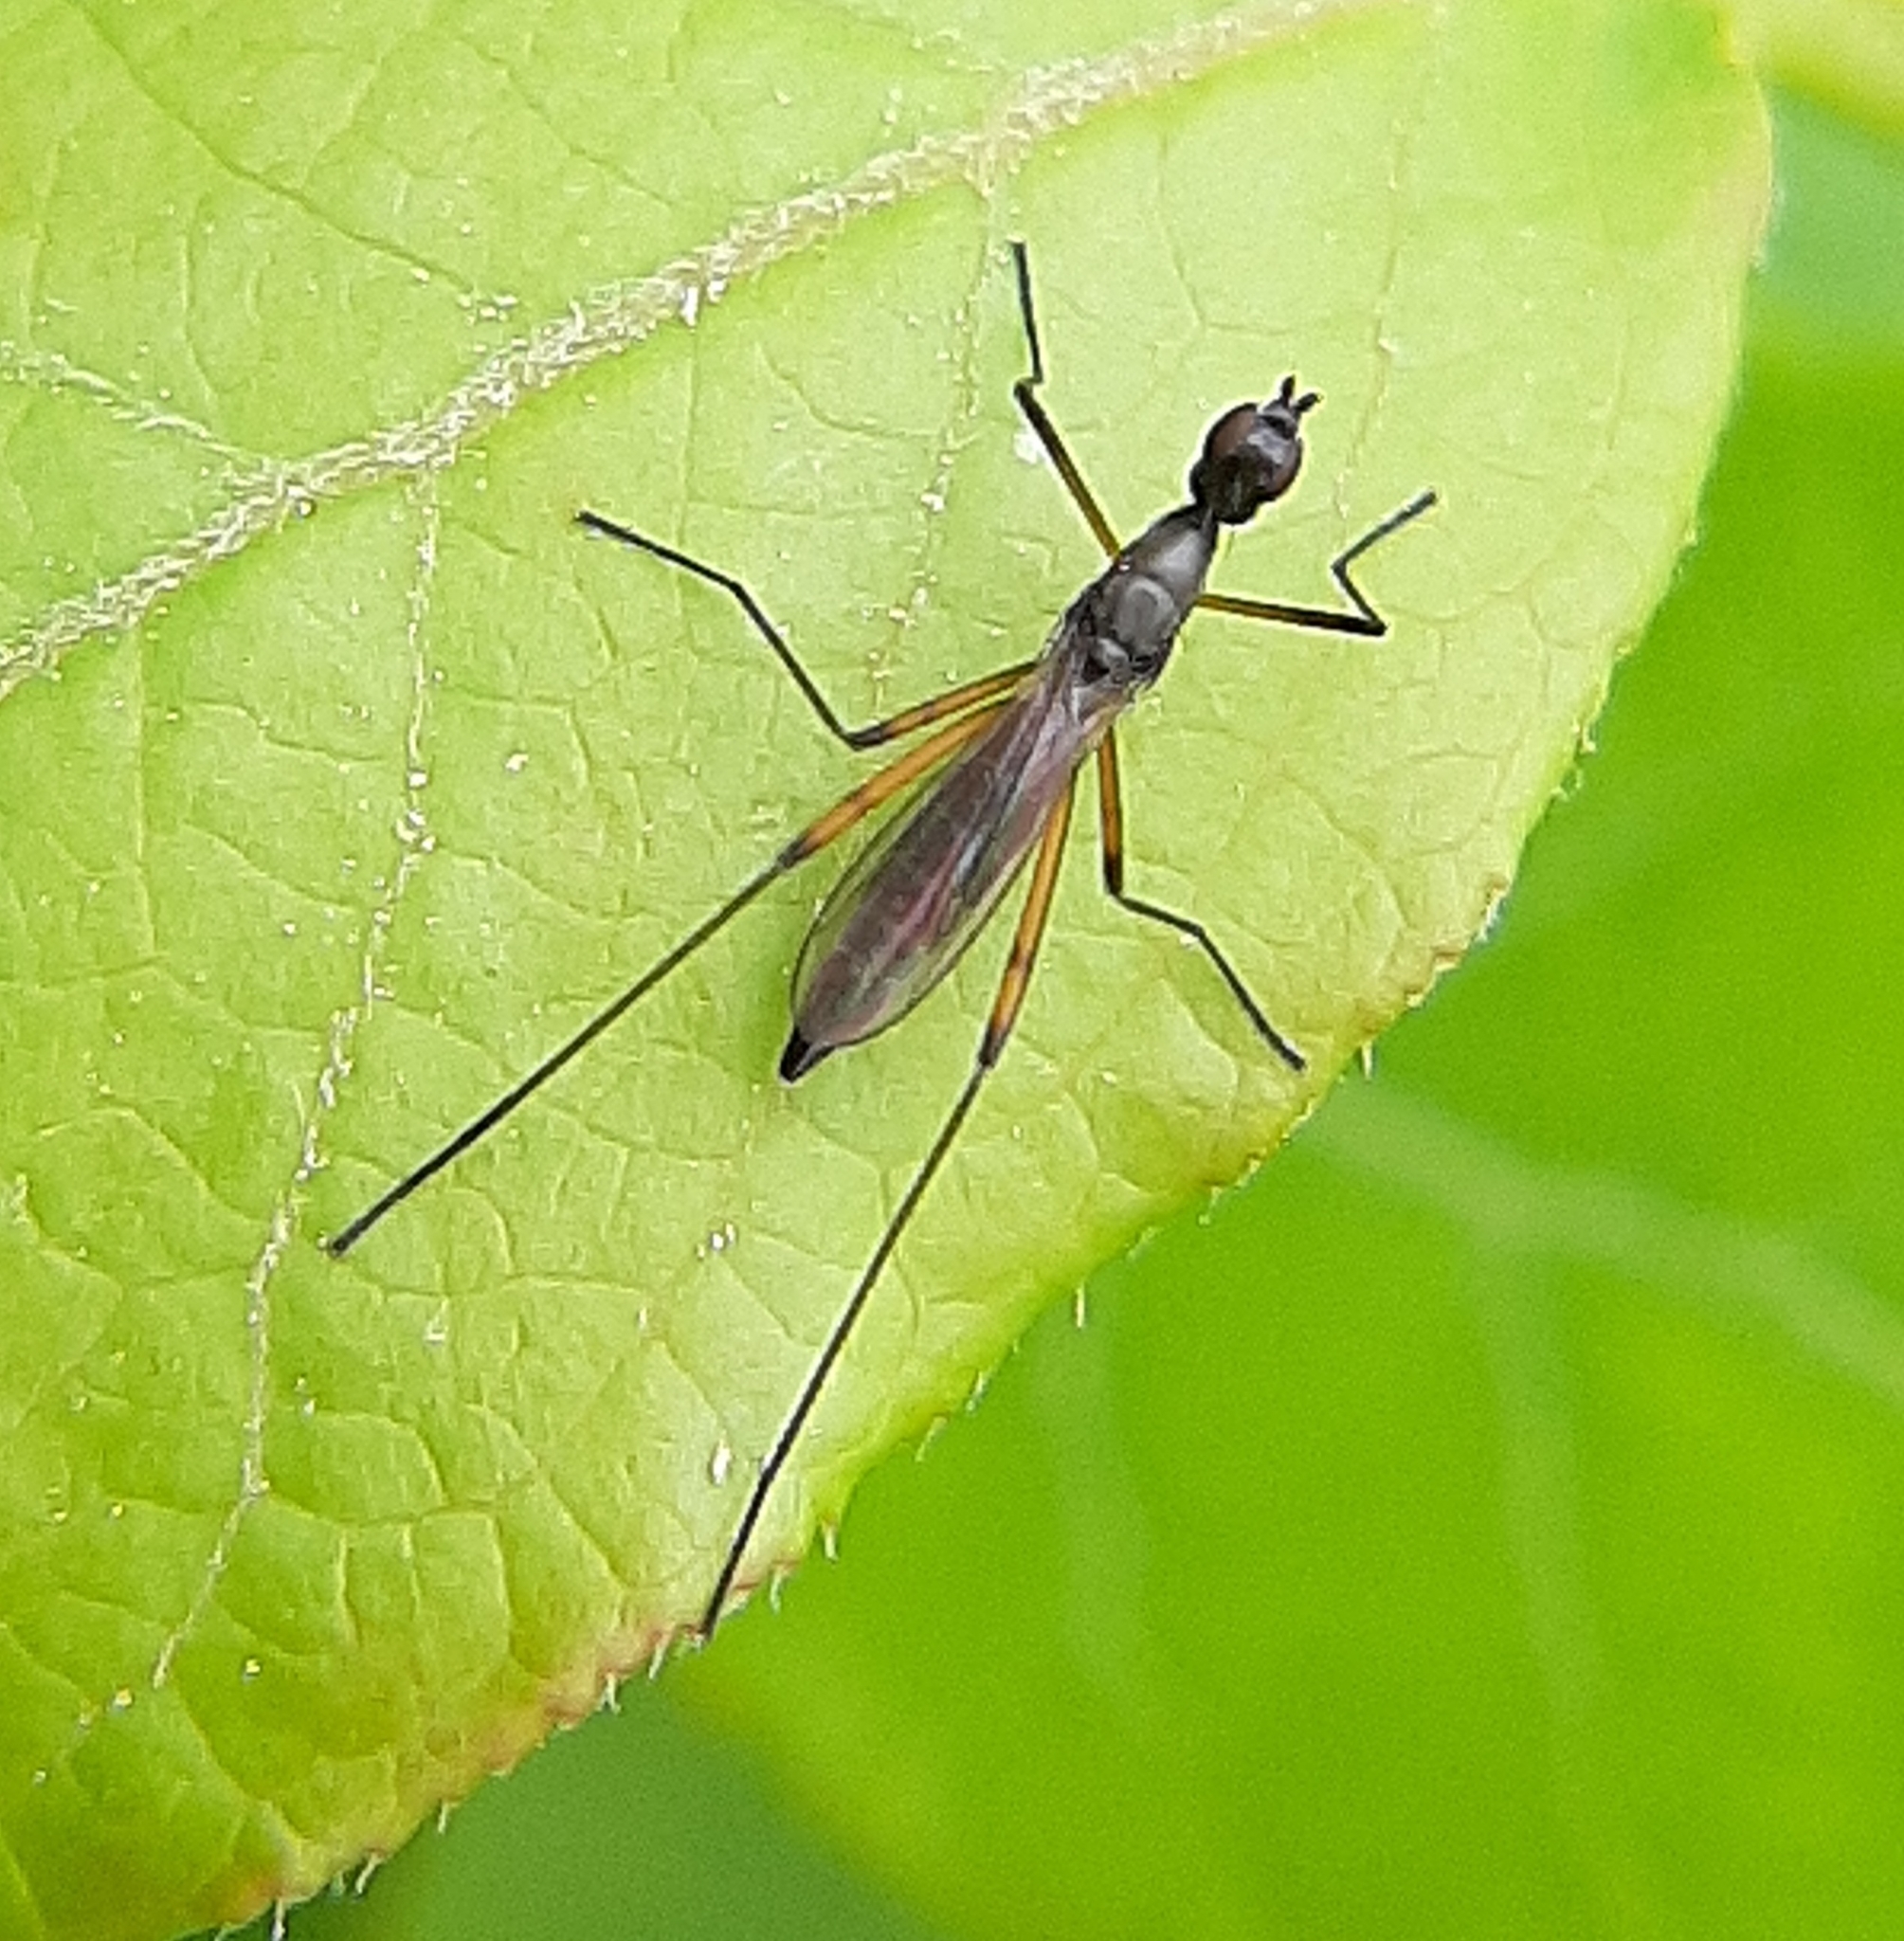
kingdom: Animalia
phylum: Arthropoda
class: Insecta
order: Diptera
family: Micropezidae
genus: Micropeza
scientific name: Micropeza corrigiolata
